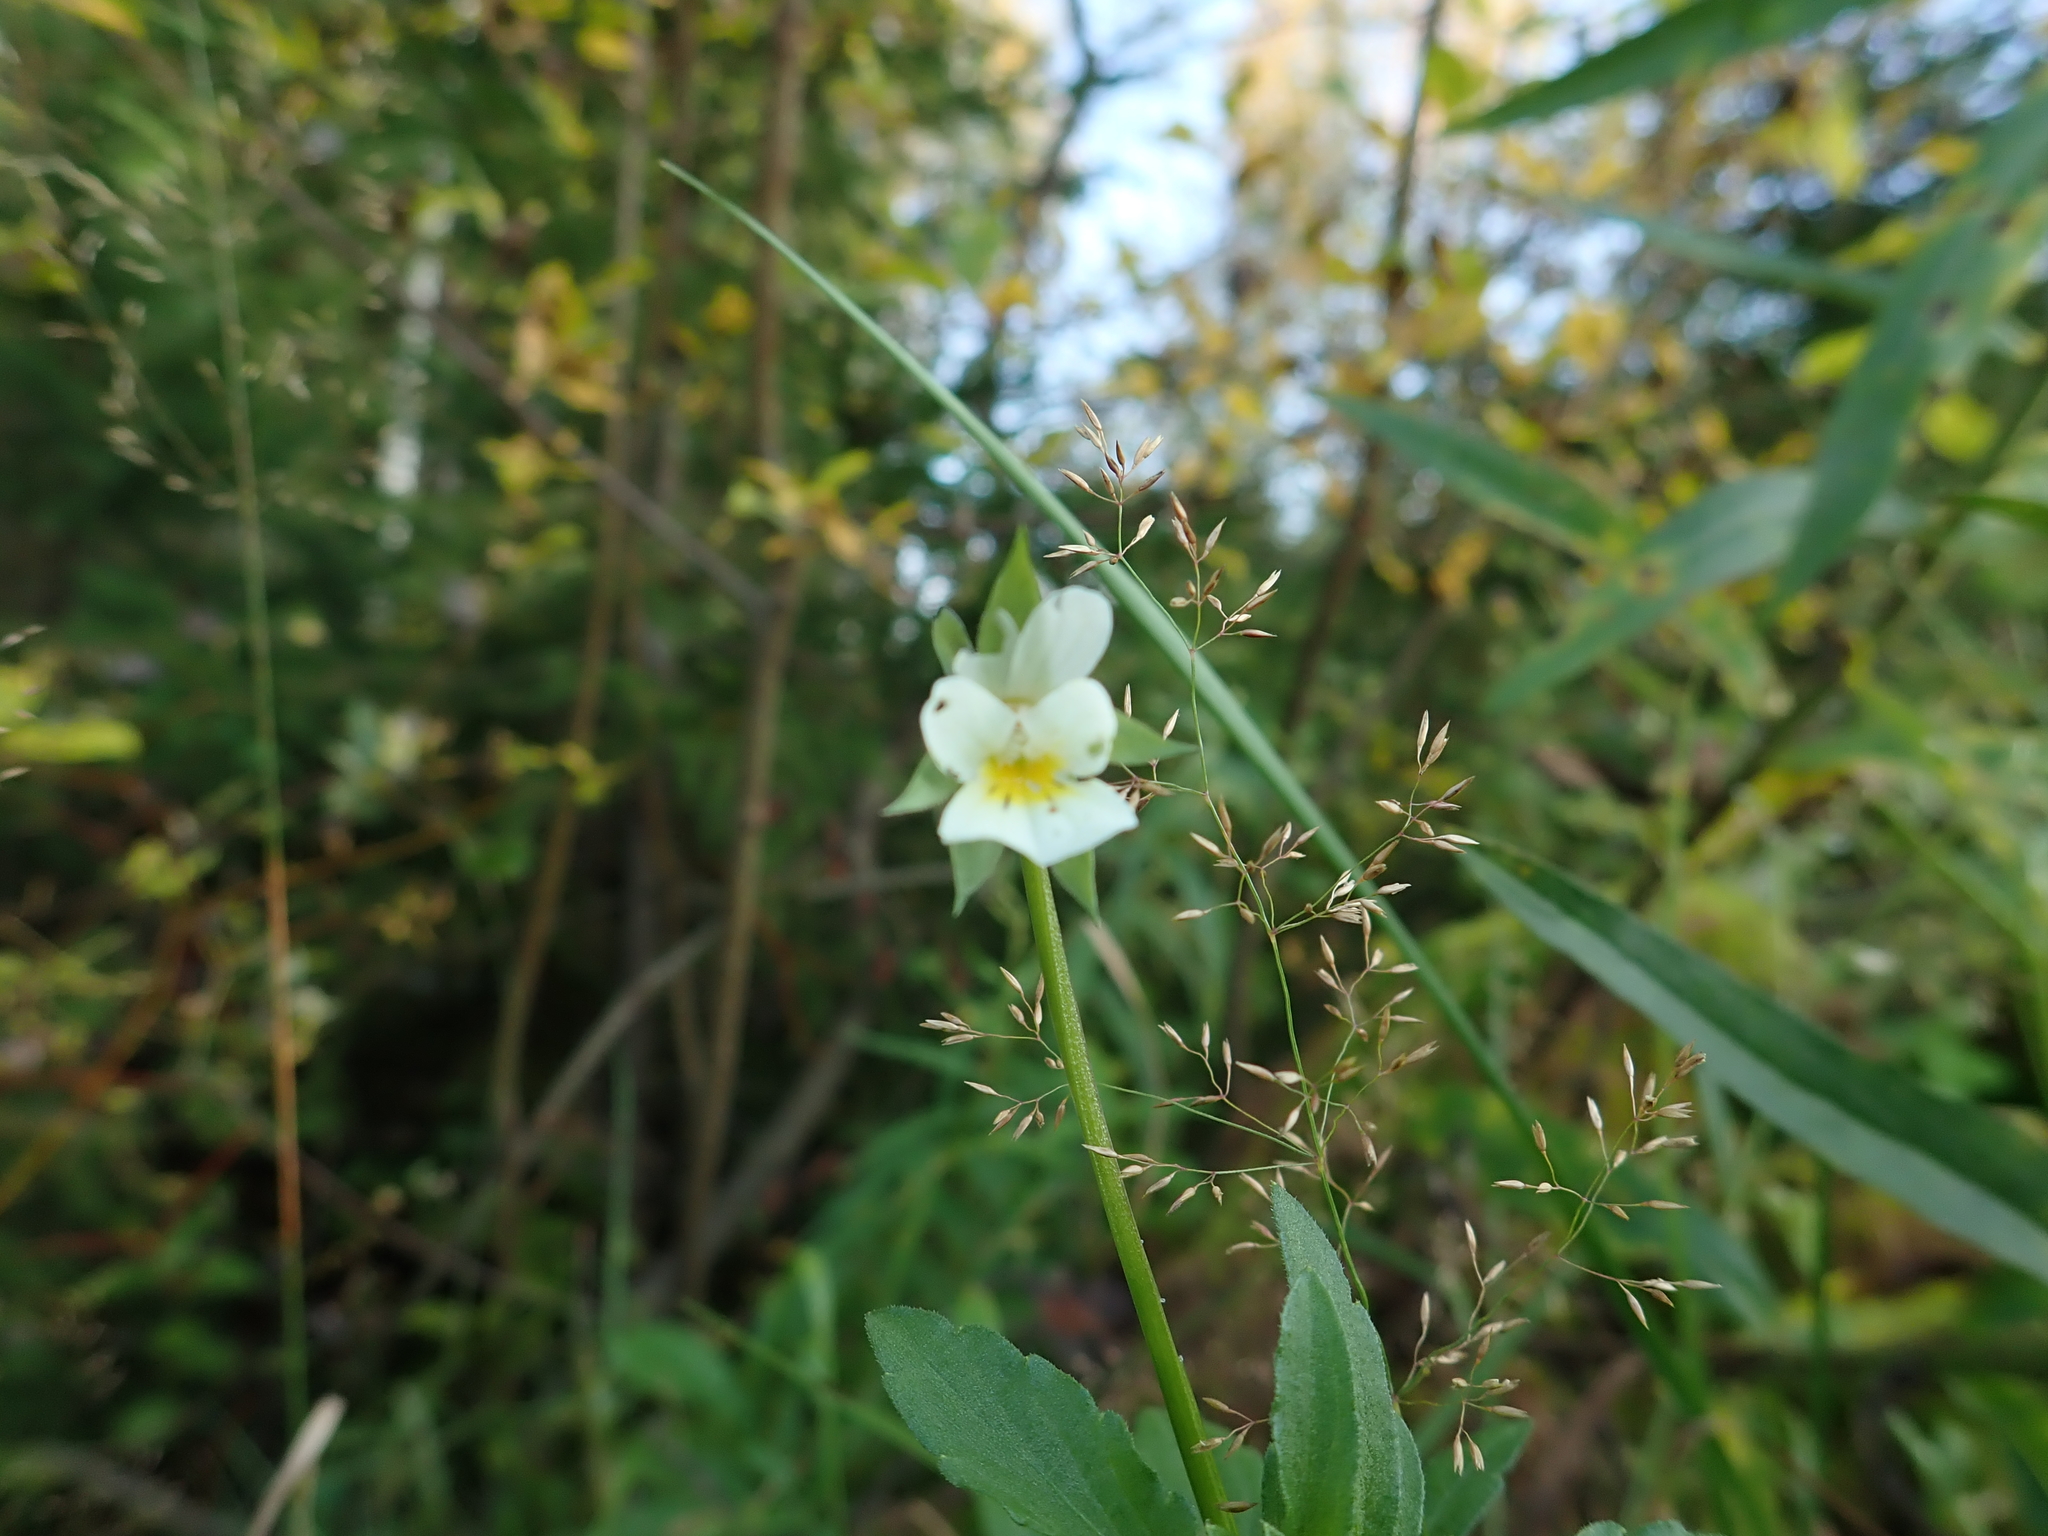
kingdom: Plantae
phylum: Tracheophyta
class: Magnoliopsida
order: Malpighiales
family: Violaceae
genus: Viola
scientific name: Viola arvensis
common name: Field pansy
